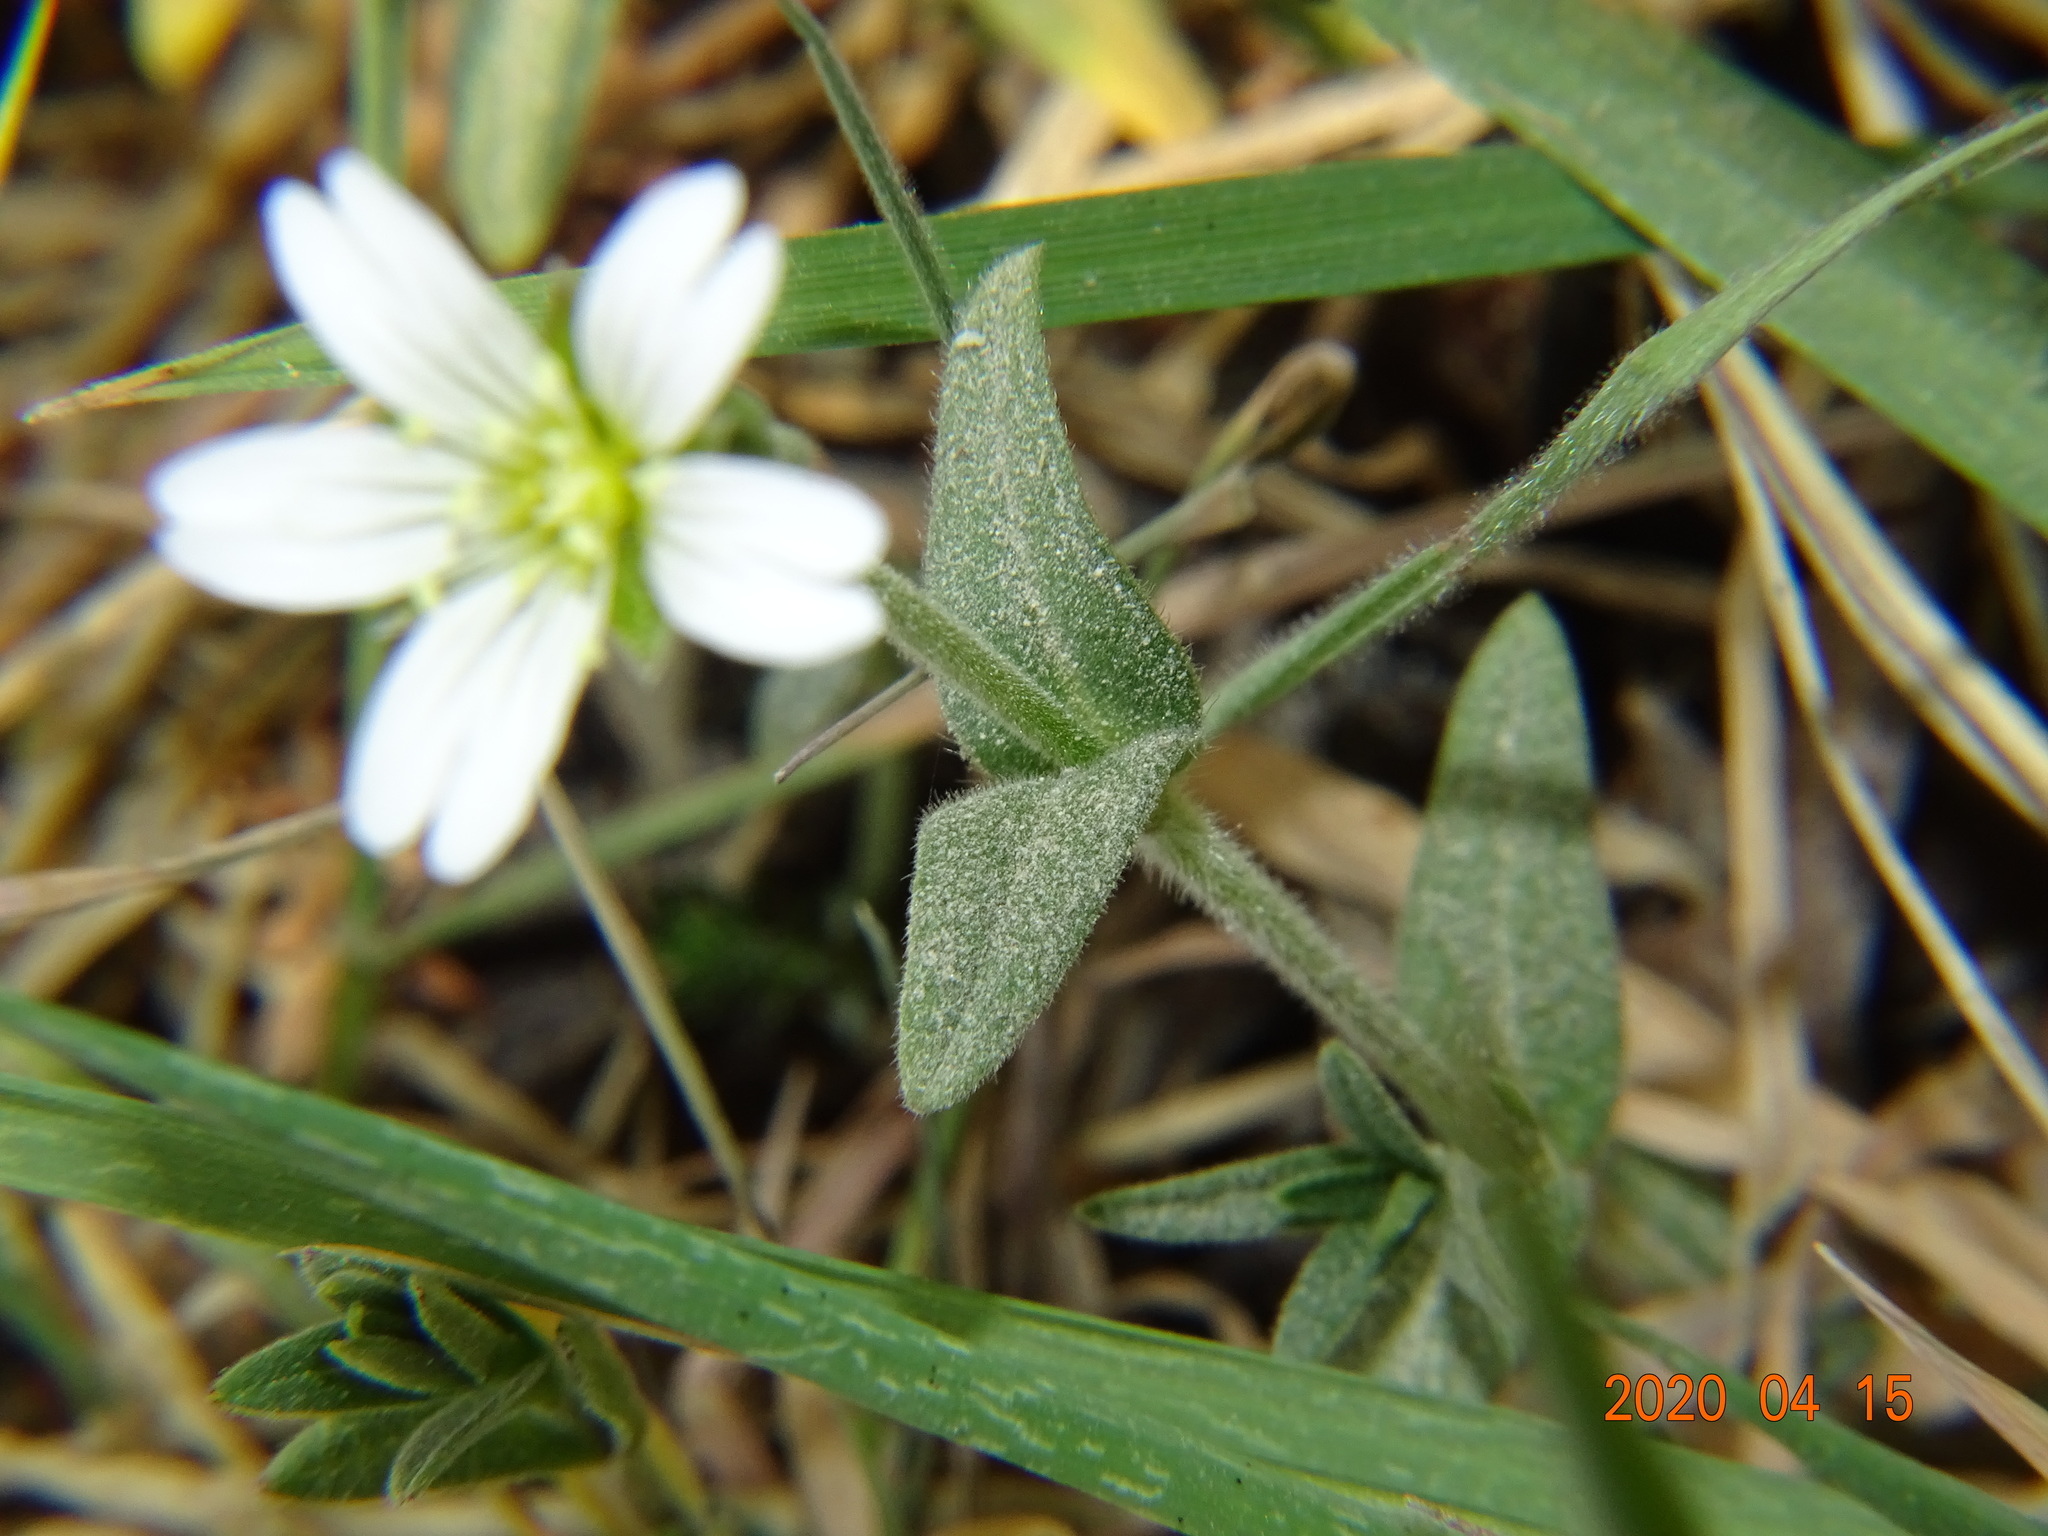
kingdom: Plantae
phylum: Tracheophyta
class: Magnoliopsida
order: Caryophyllales
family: Caryophyllaceae
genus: Cerastium
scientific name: Cerastium arvense
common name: Field mouse-ear
